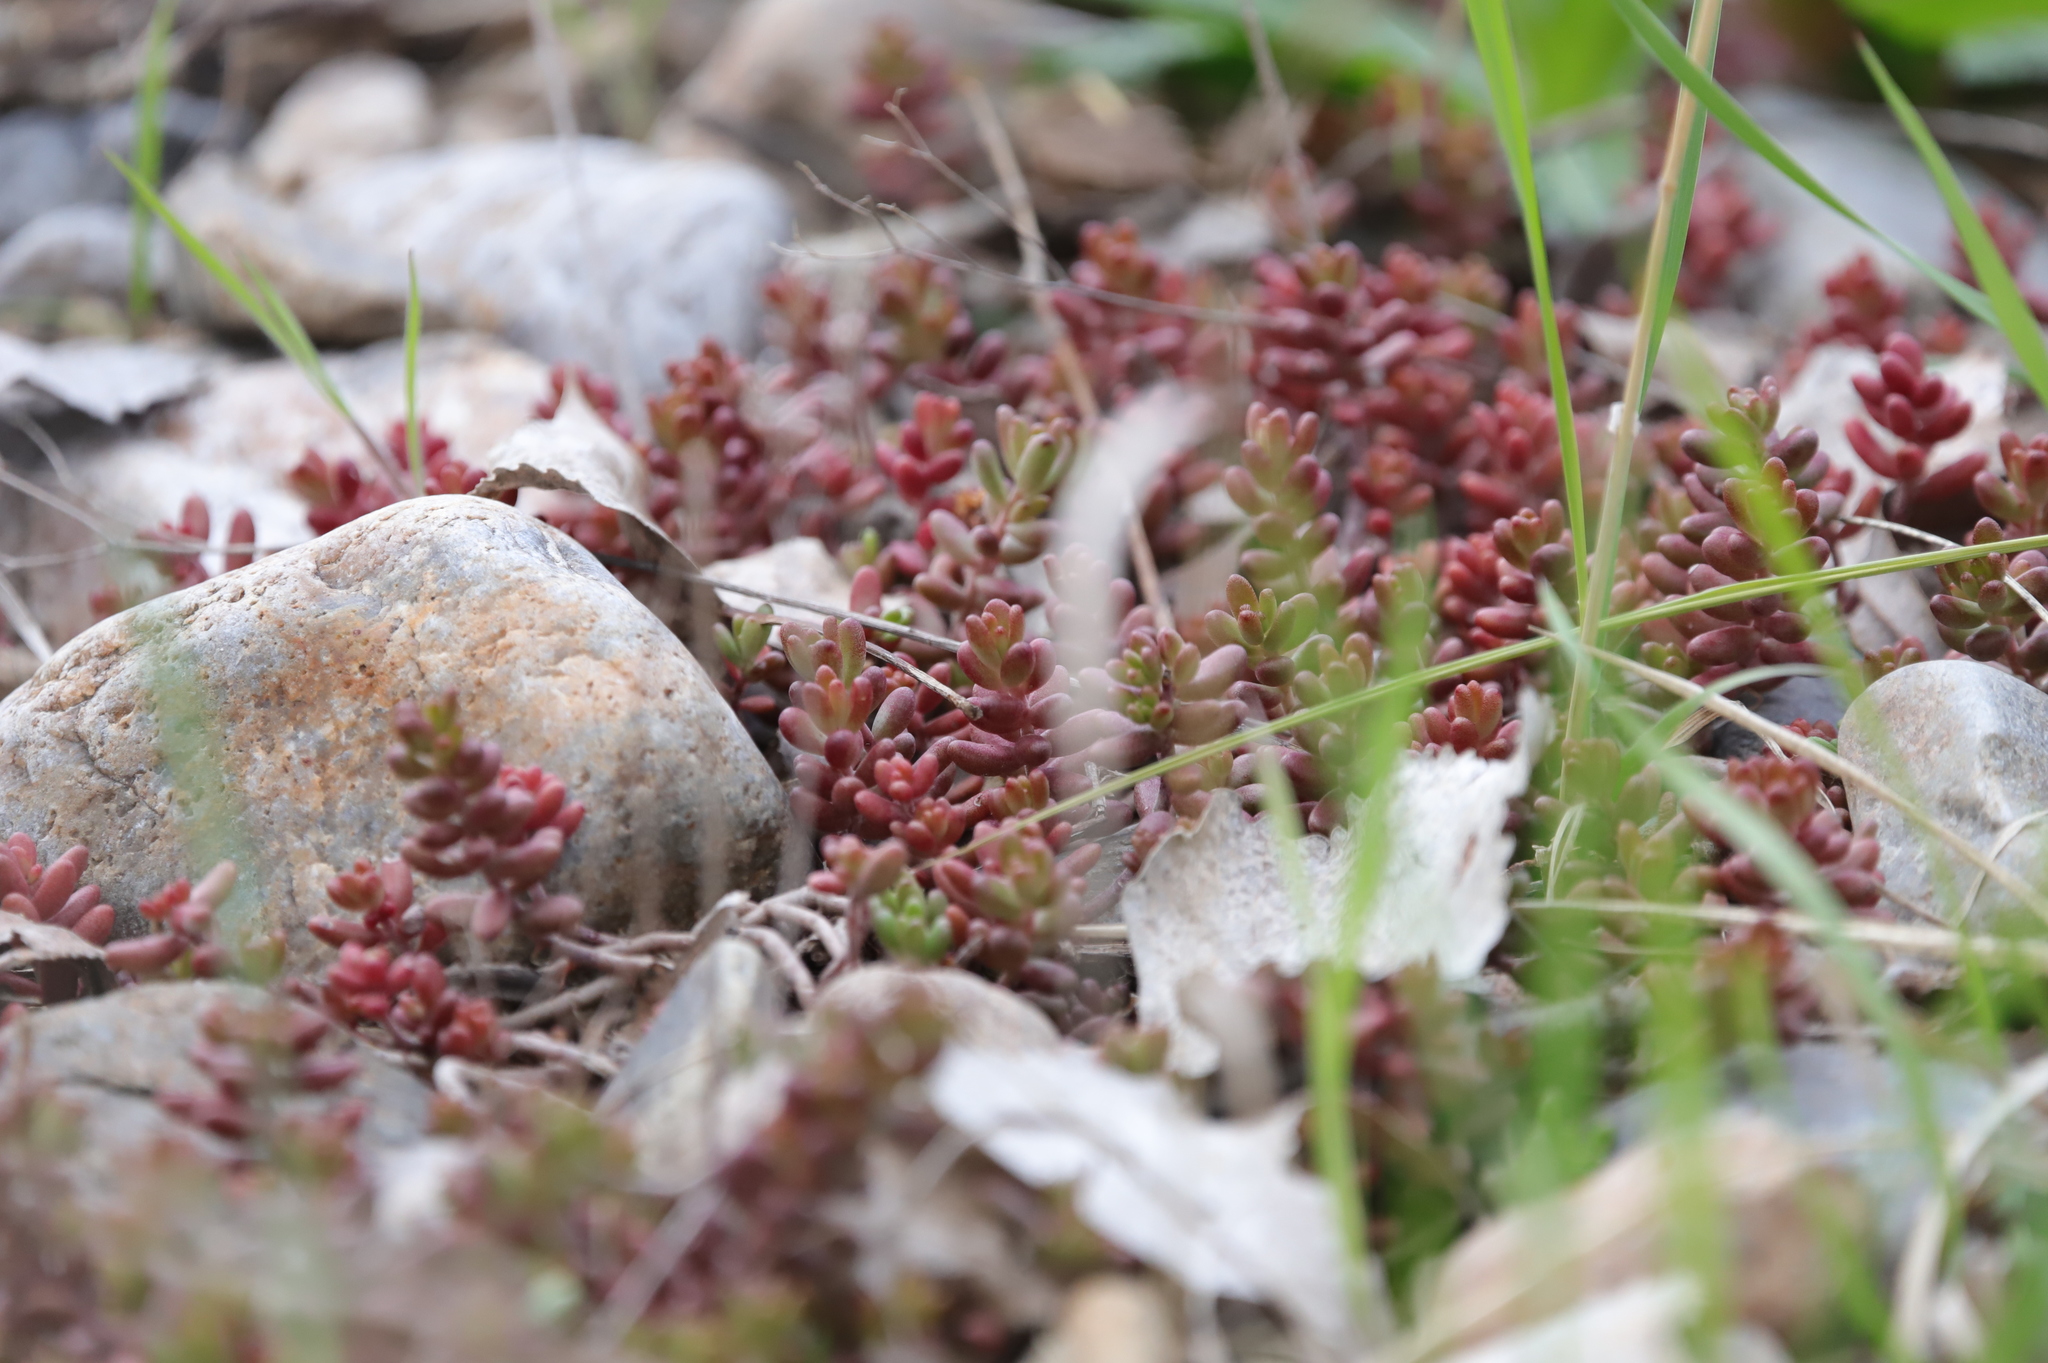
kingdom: Plantae
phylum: Tracheophyta
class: Magnoliopsida
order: Saxifragales
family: Crassulaceae
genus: Sedum
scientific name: Sedum album
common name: White stonecrop
